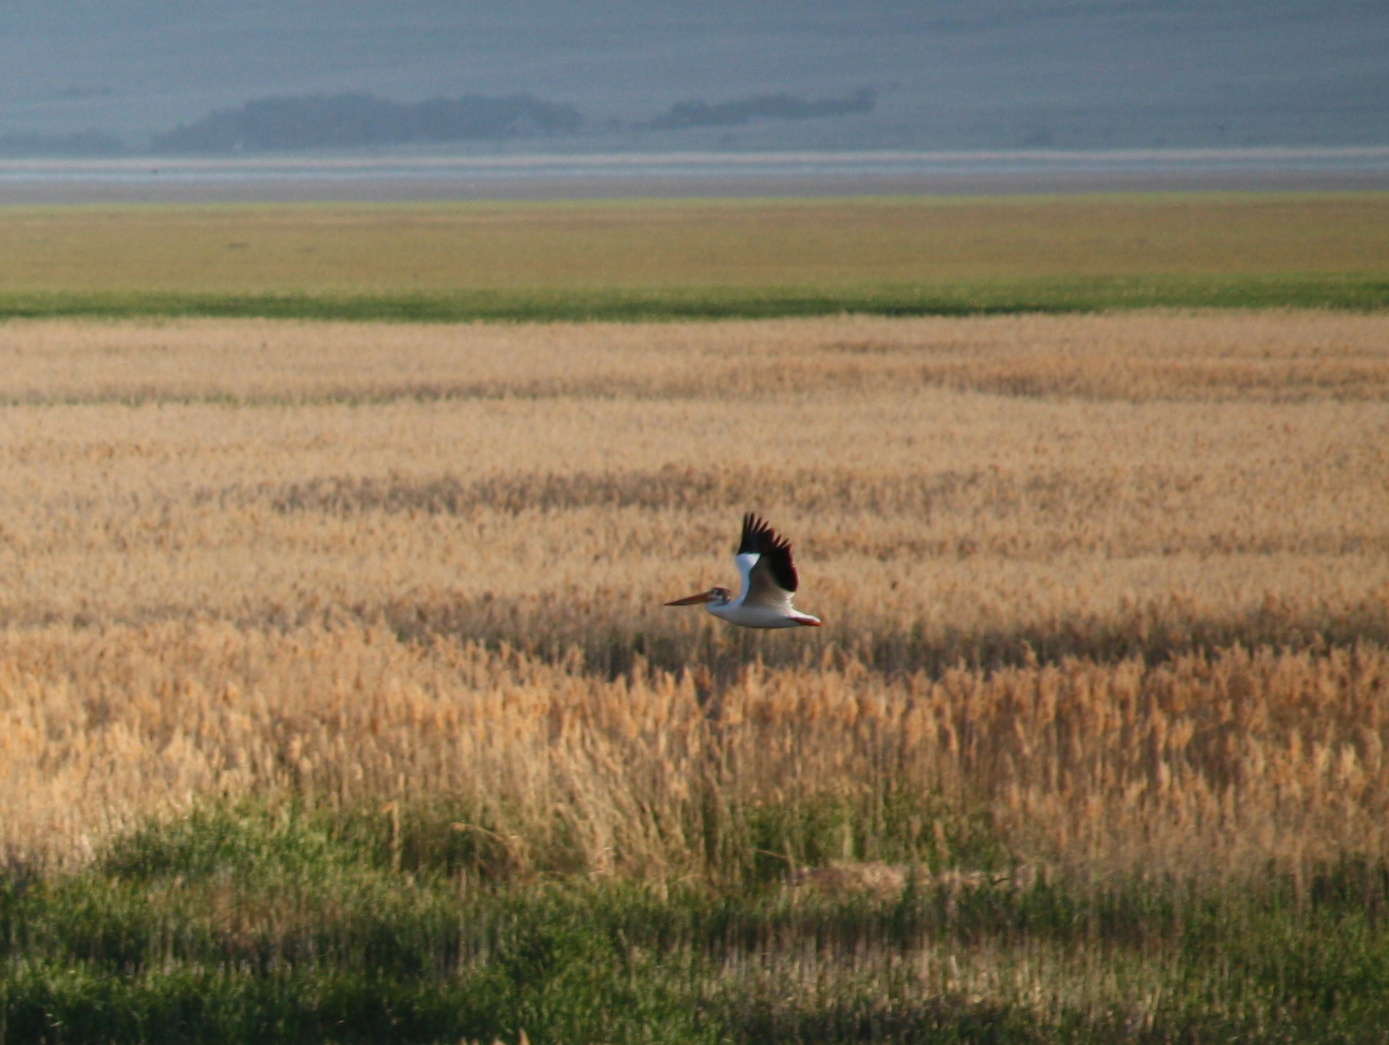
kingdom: Animalia
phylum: Chordata
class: Aves
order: Pelecaniformes
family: Pelecanidae
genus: Pelecanus
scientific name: Pelecanus erythrorhynchos
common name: American white pelican
